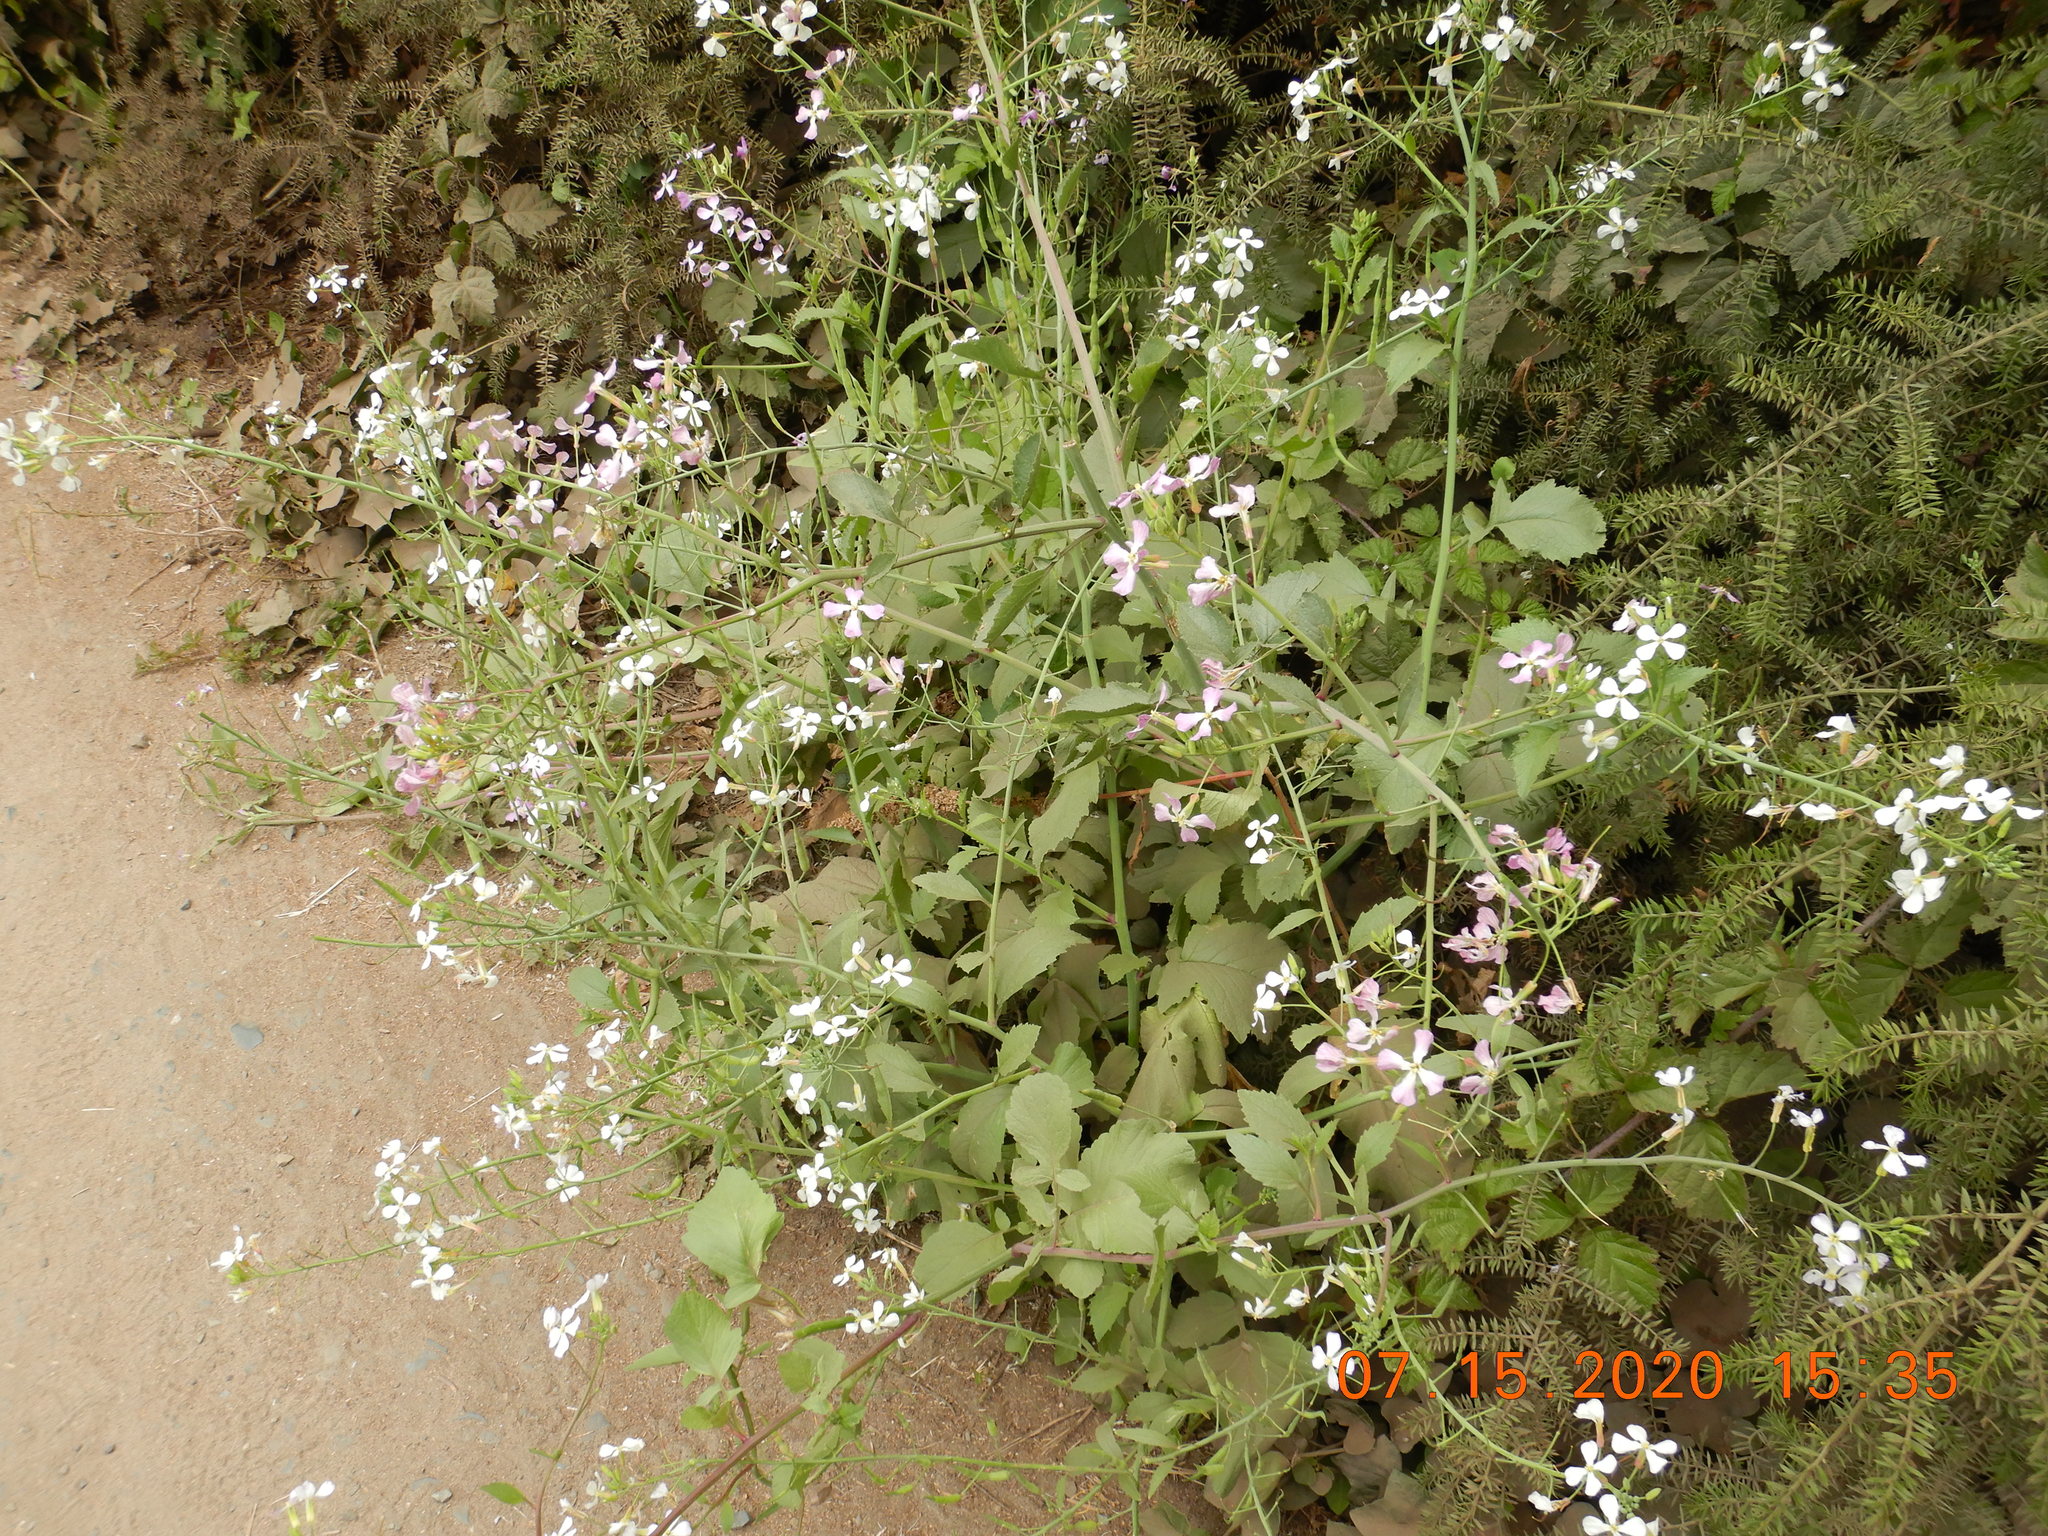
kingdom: Plantae
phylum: Tracheophyta
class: Magnoliopsida
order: Brassicales
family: Brassicaceae
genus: Raphanus
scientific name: Raphanus sativus
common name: Cultivated radish
